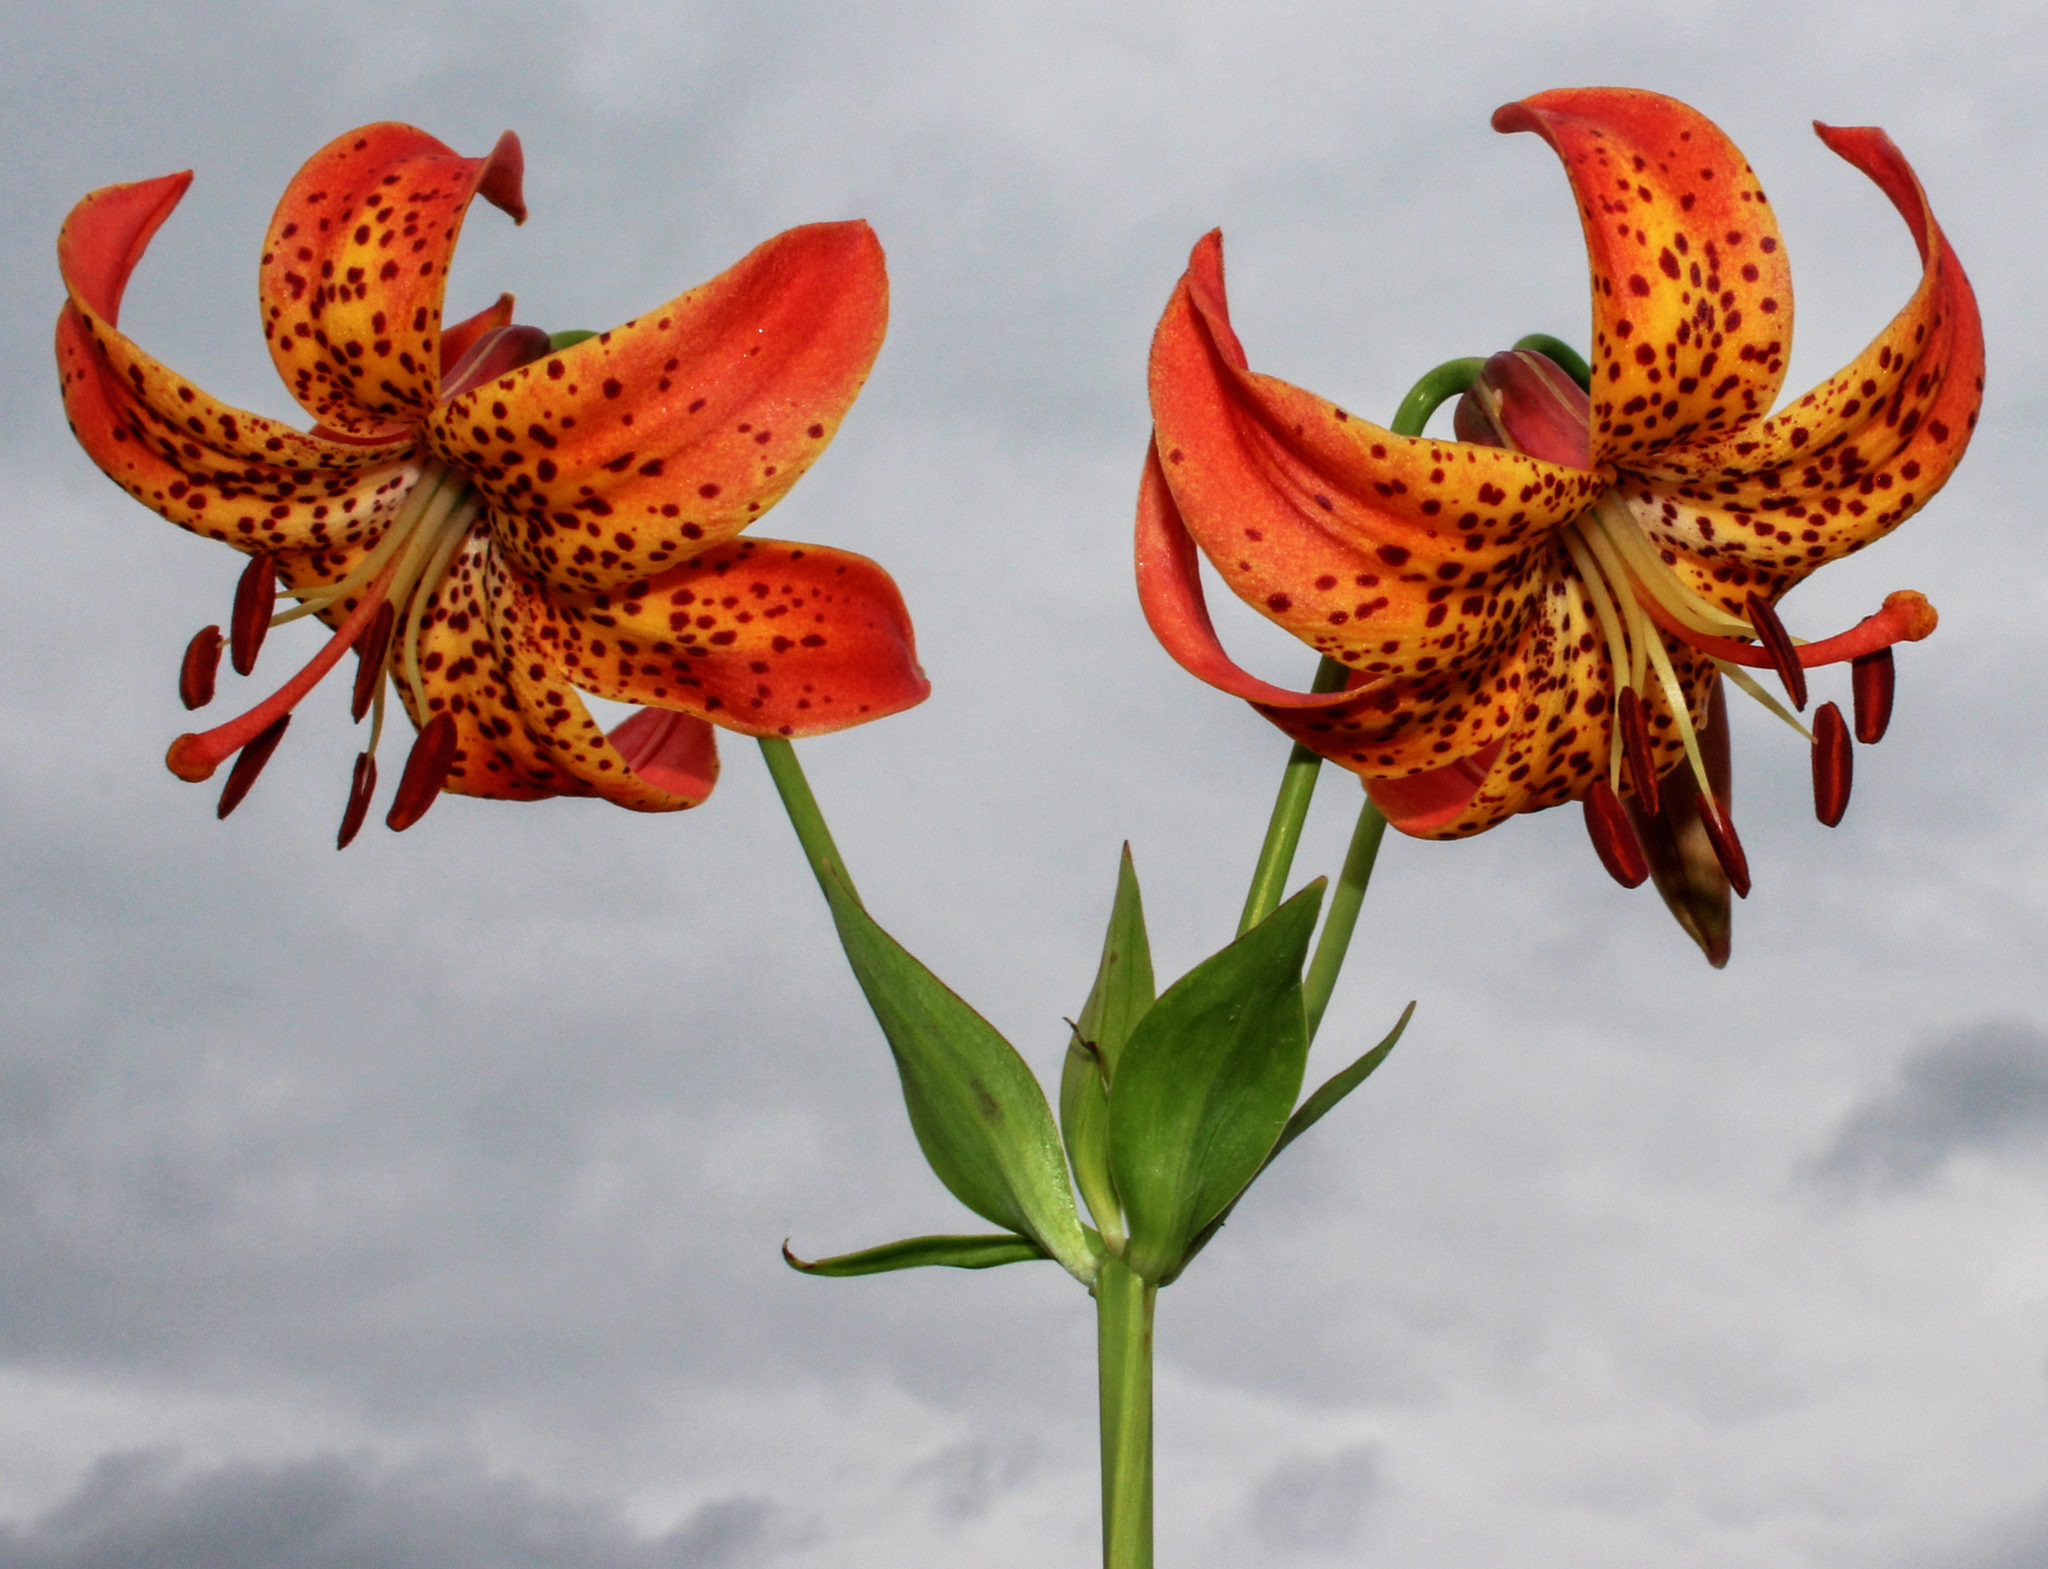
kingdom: Plantae
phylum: Tracheophyta
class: Liliopsida
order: Liliales
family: Liliaceae
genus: Lilium
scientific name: Lilium michiganense
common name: Michigan lily
